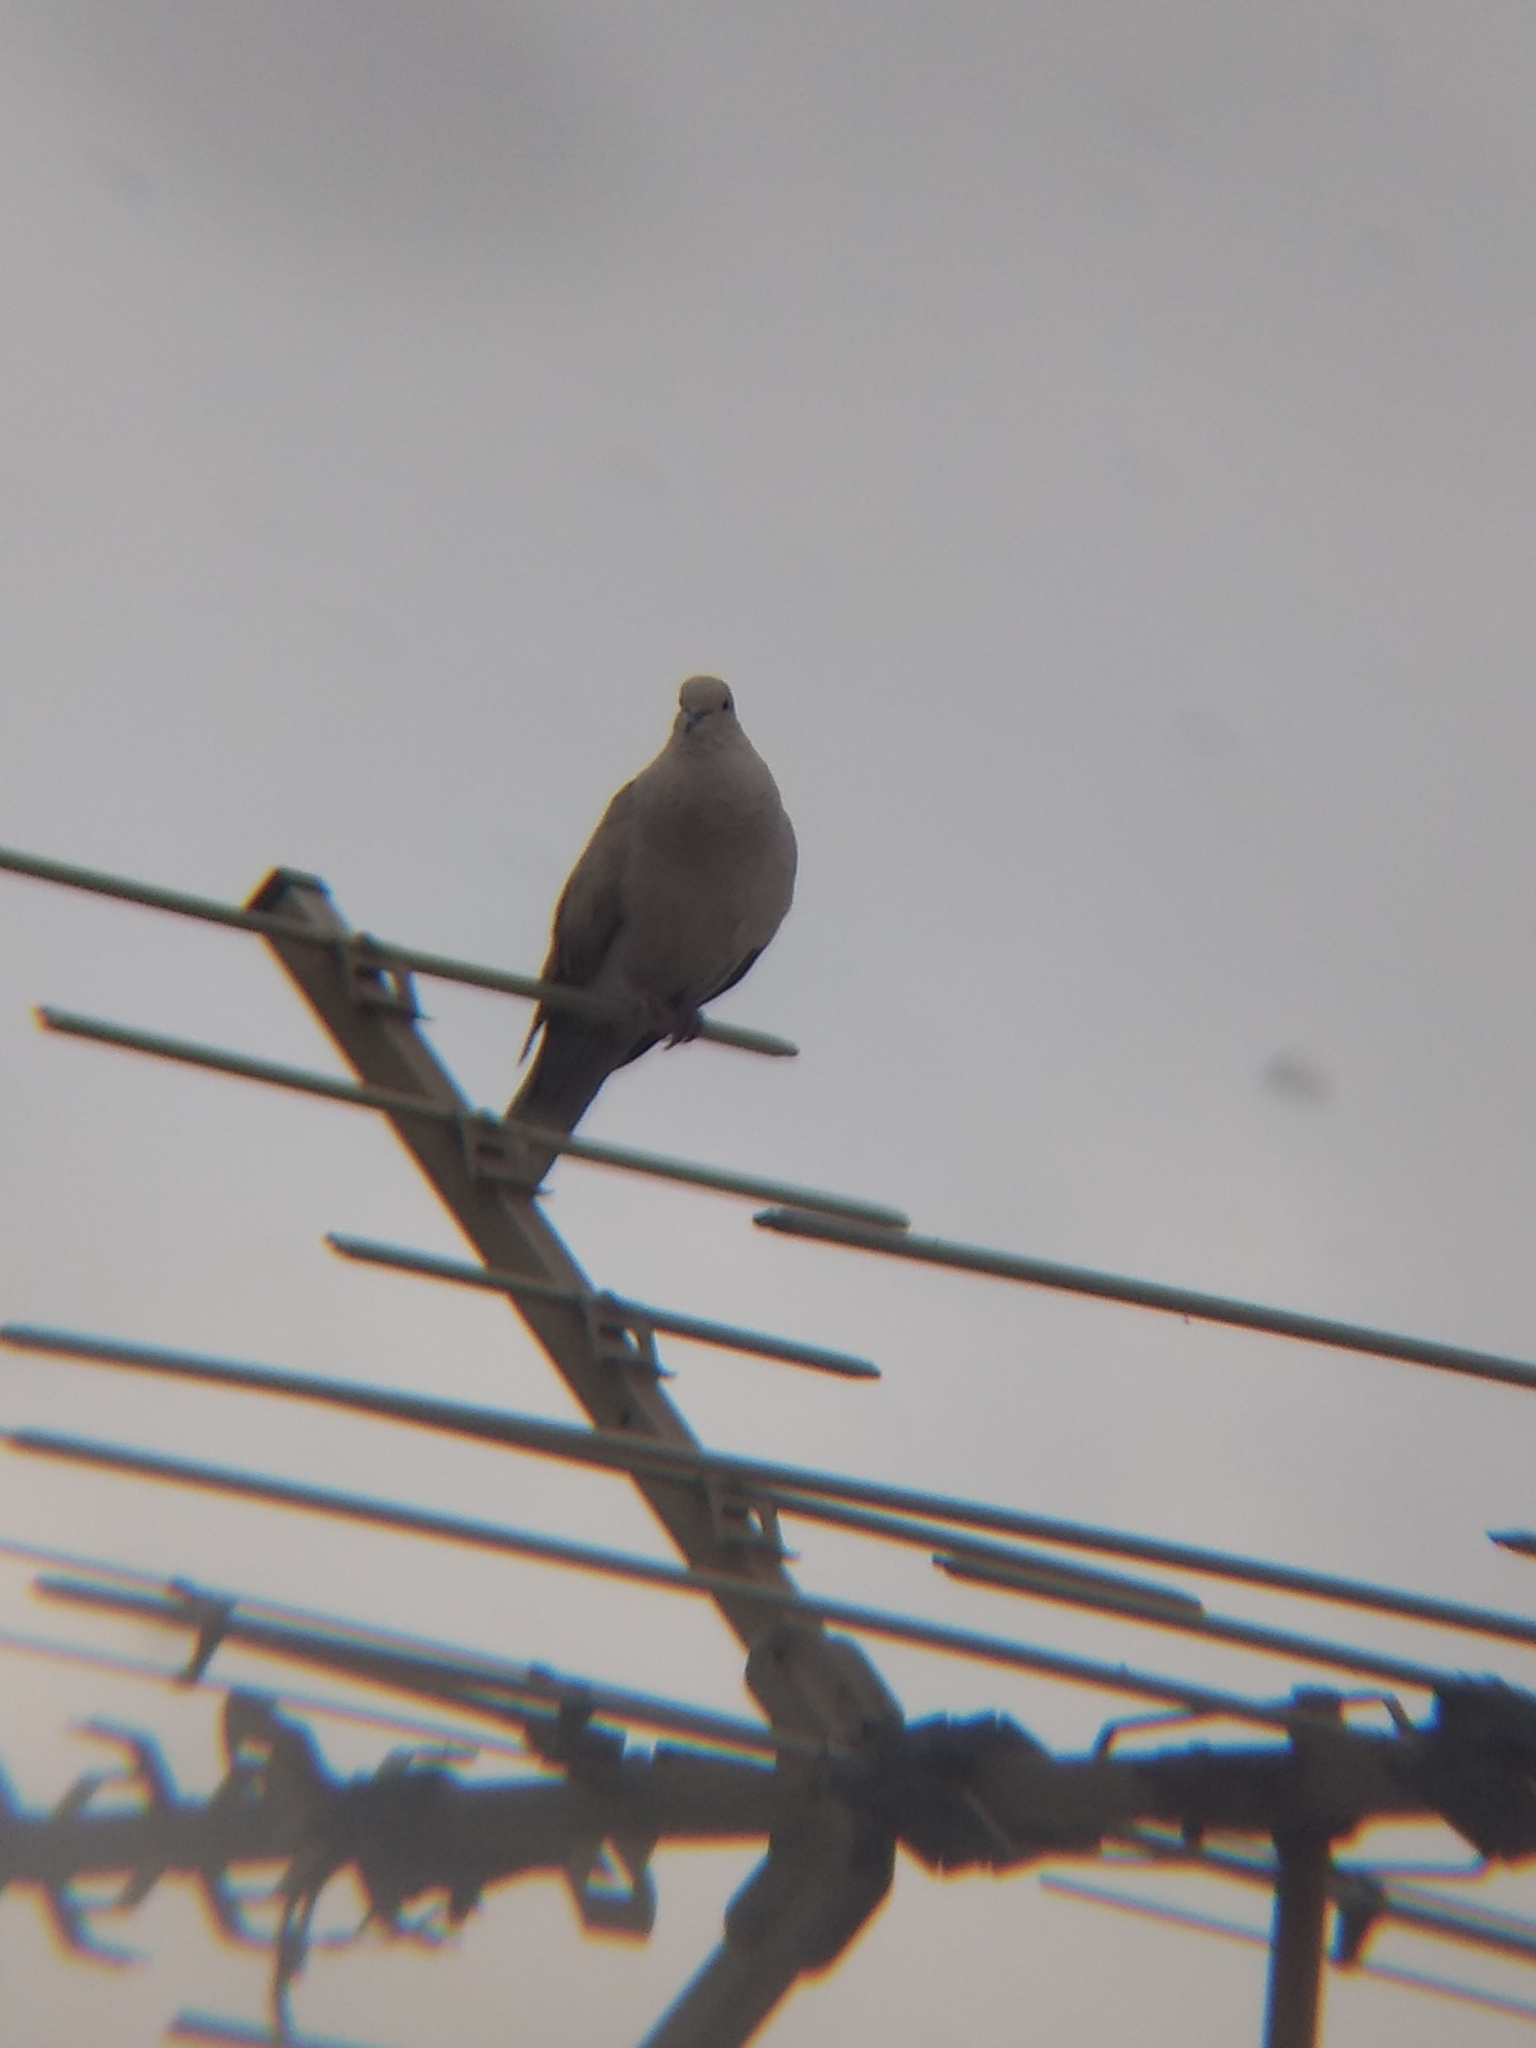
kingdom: Animalia
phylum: Chordata
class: Aves
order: Columbiformes
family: Columbidae
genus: Streptopelia
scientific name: Streptopelia decaocto
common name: Eurasian collared dove
